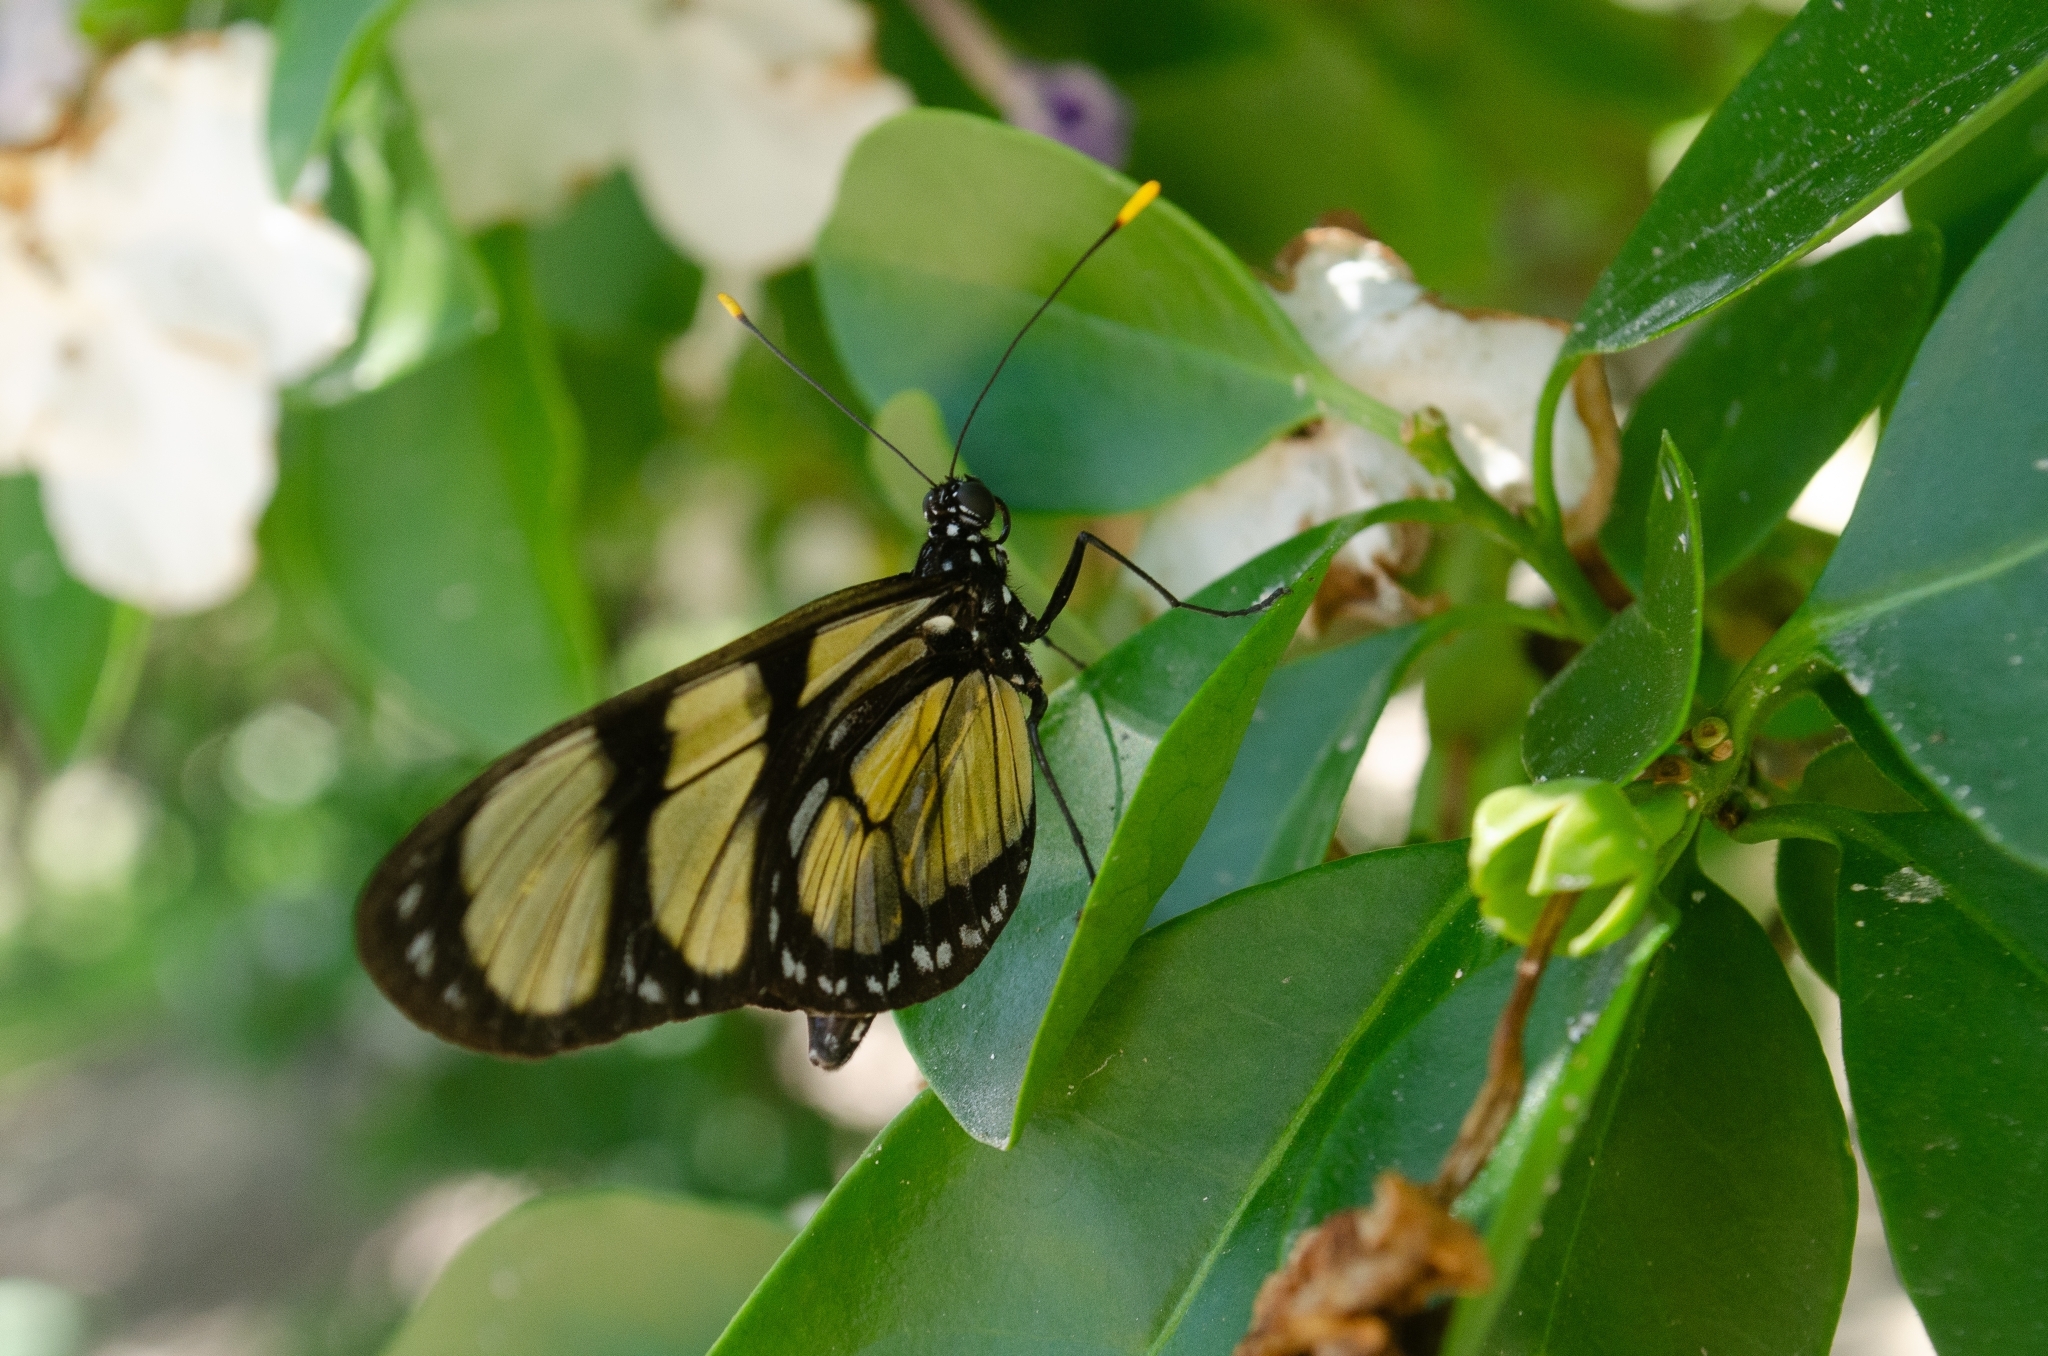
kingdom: Animalia
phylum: Arthropoda
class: Insecta
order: Lepidoptera
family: Nymphalidae
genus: Methona
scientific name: Methona themisto
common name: Themisto amberwing
